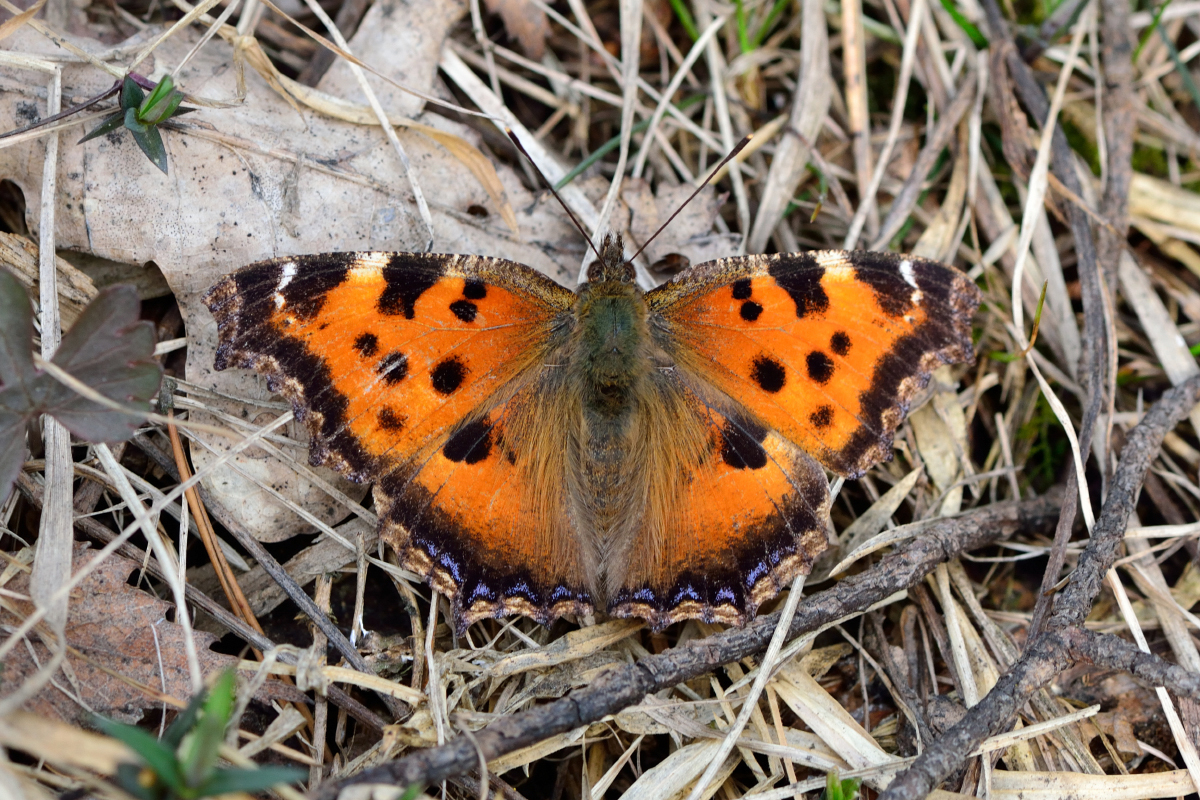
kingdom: Animalia
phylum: Arthropoda
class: Insecta
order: Lepidoptera
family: Nymphalidae
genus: Nymphalis
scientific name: Nymphalis xanthomelas
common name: Scarce tortoiseshell
